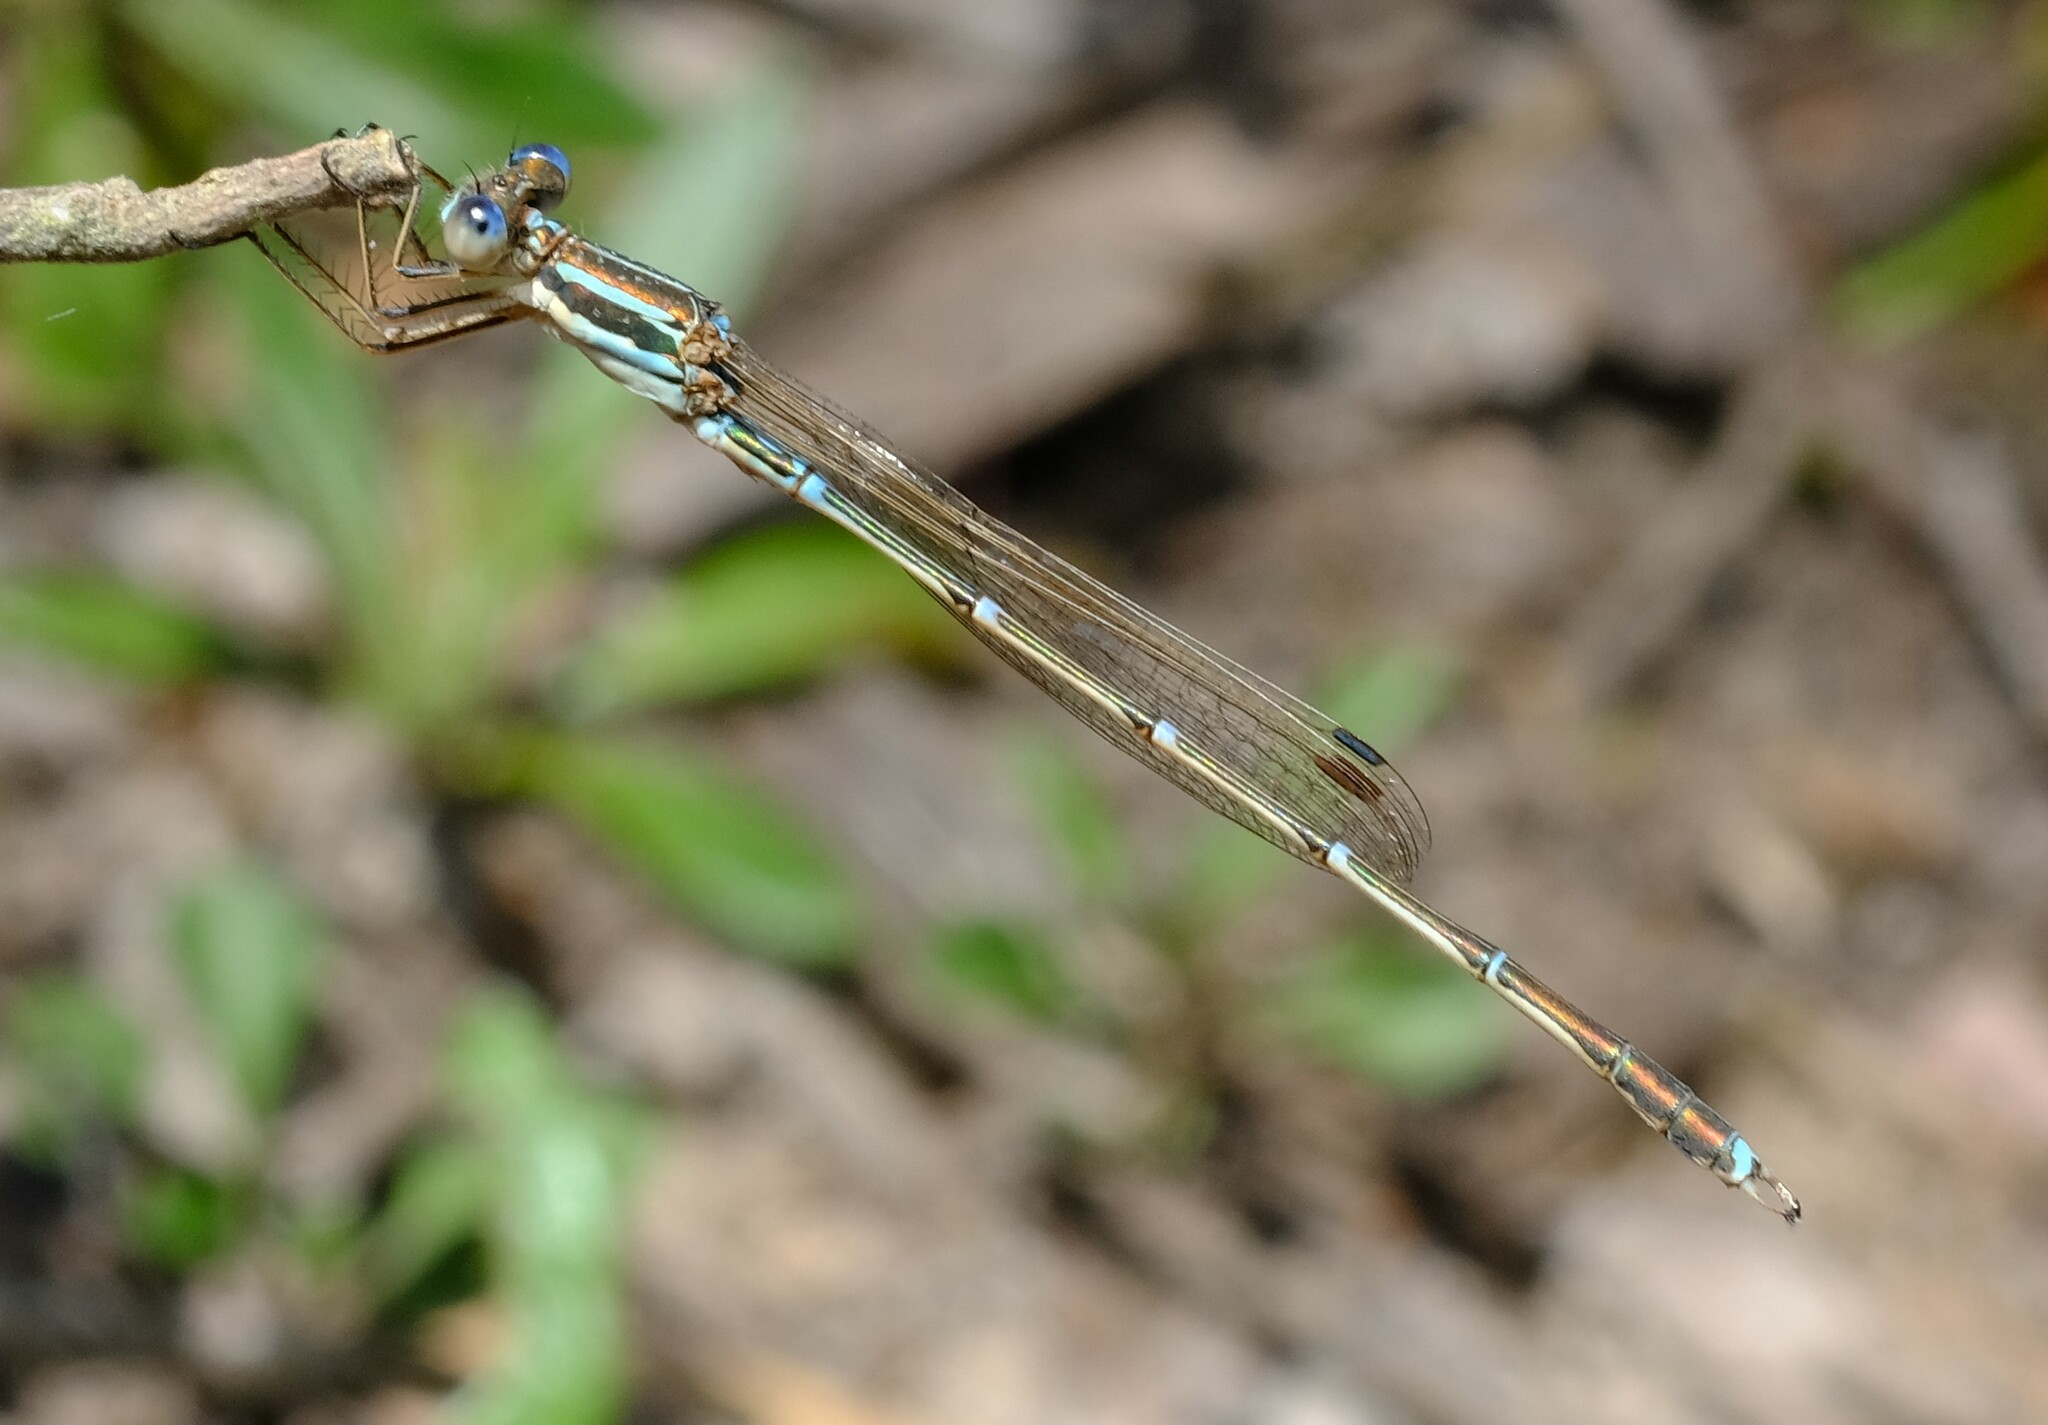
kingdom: Animalia
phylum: Arthropoda
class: Insecta
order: Odonata
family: Lestidae
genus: Austrolestes
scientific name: Austrolestes analis
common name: Slender ringtail
